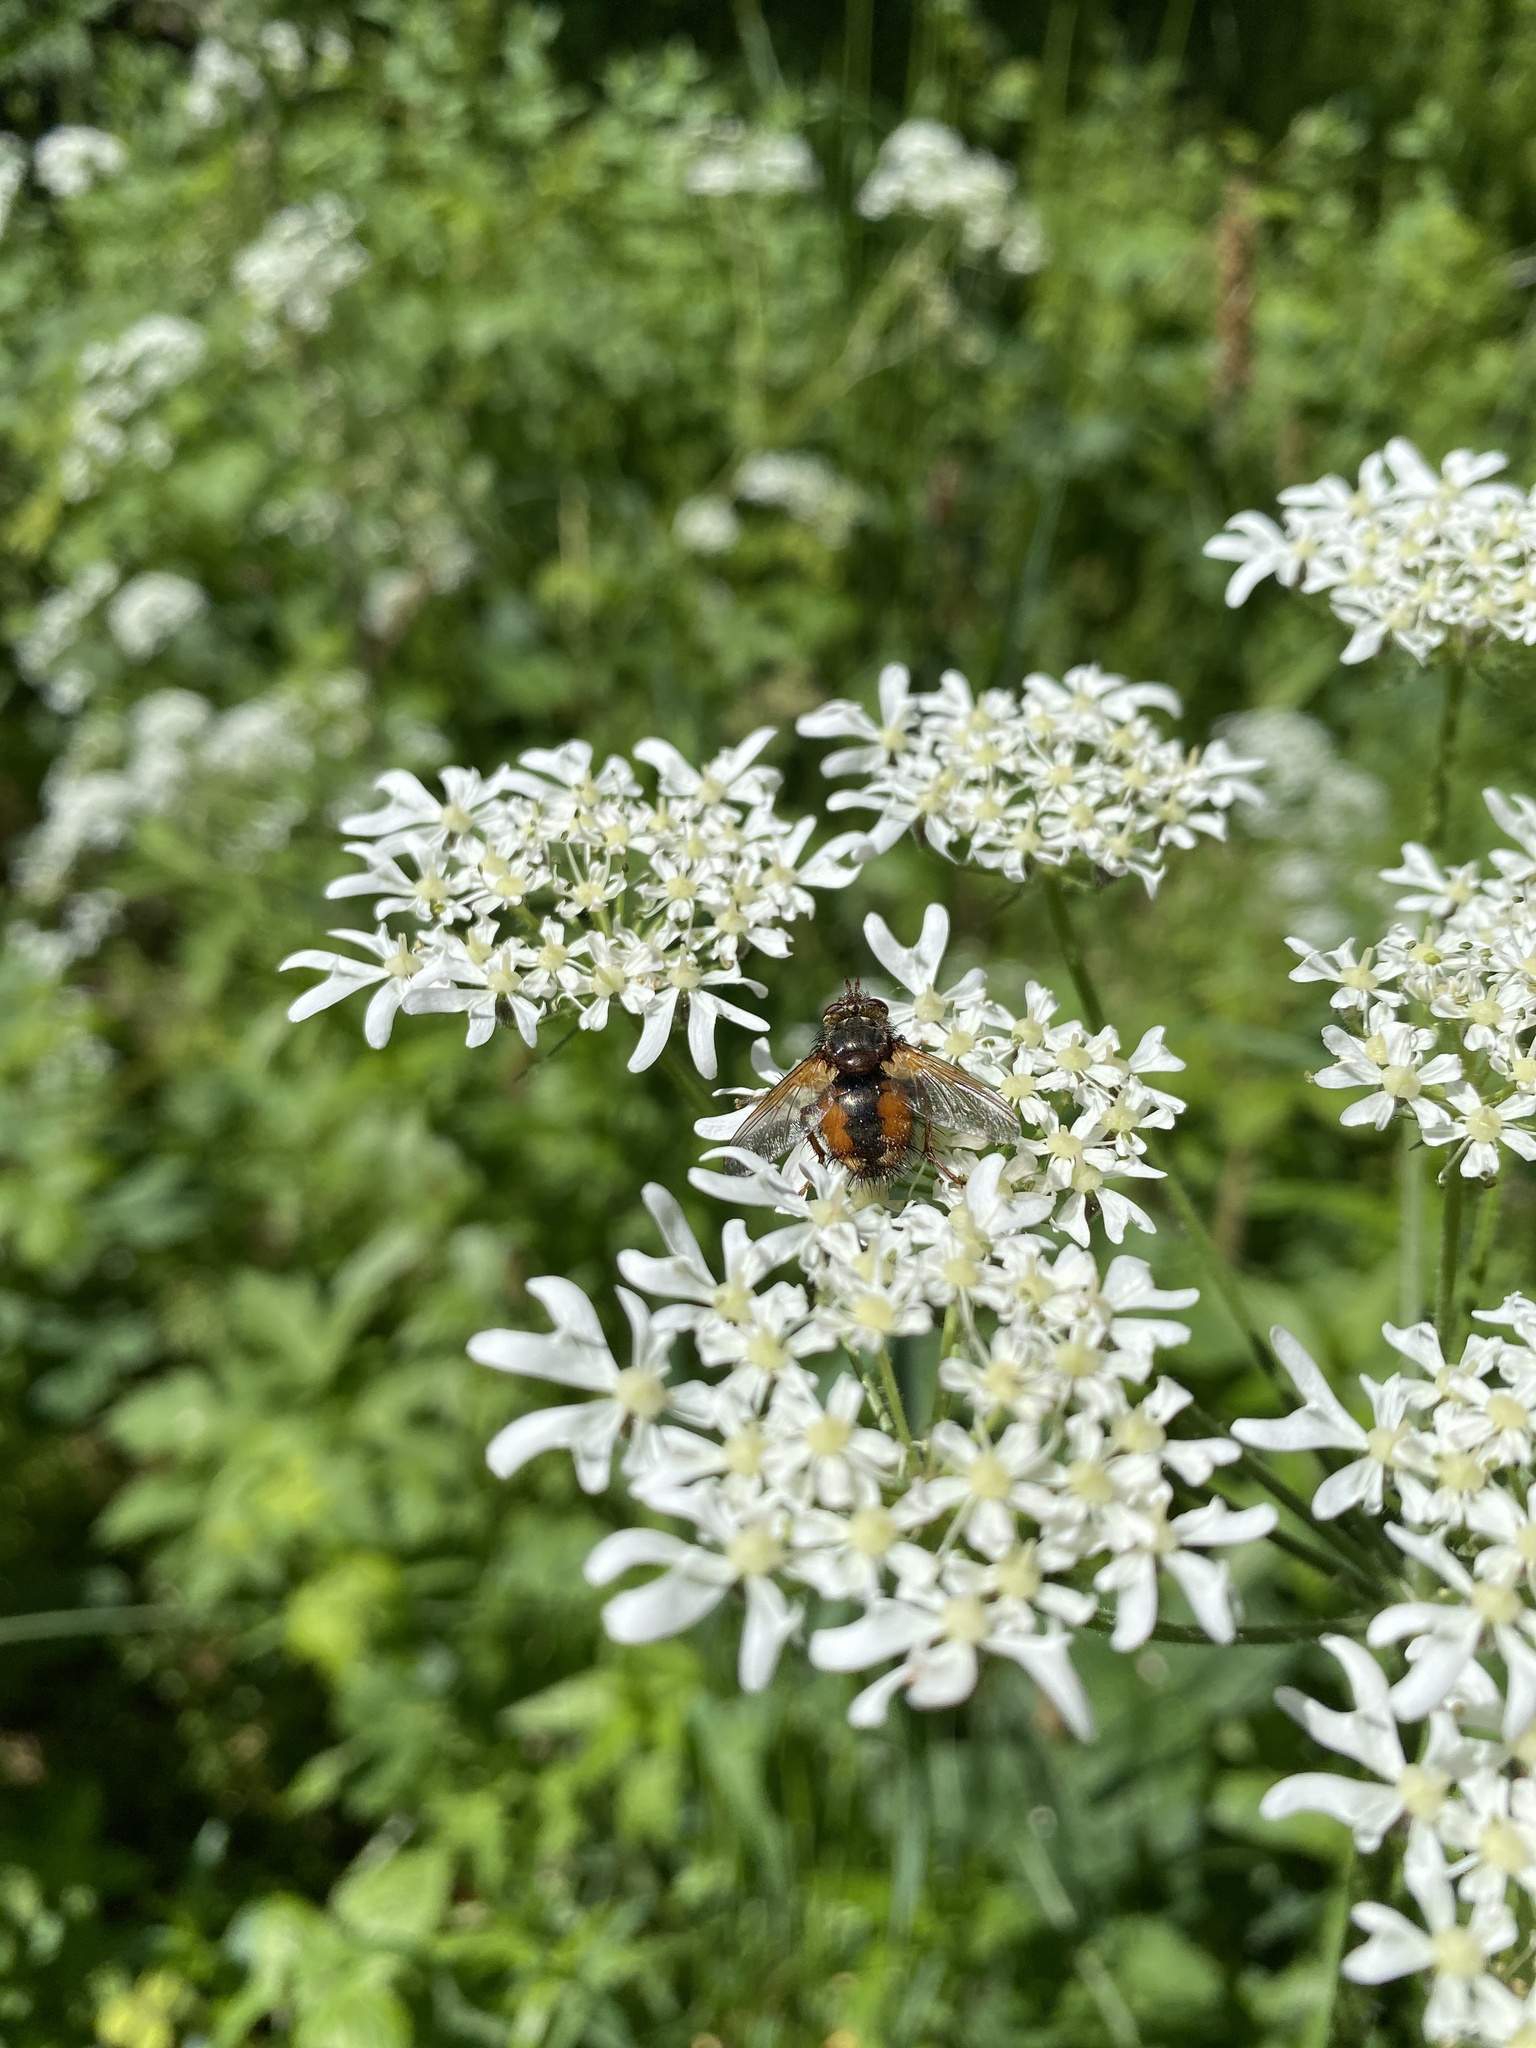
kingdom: Animalia
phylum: Arthropoda
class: Insecta
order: Diptera
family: Tachinidae
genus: Tachina
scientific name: Tachina fera
